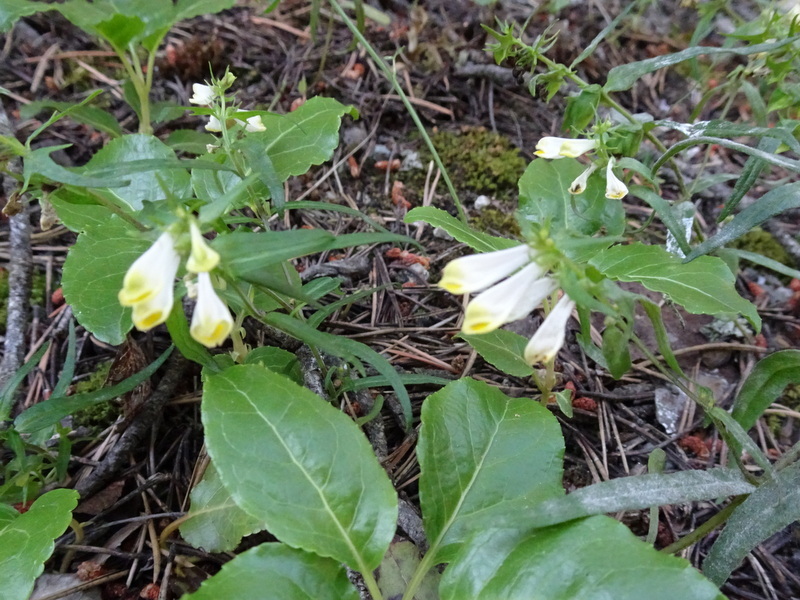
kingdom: Plantae
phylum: Tracheophyta
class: Magnoliopsida
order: Lamiales
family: Orobanchaceae
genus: Melampyrum
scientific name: Melampyrum pratense
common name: Common cow-wheat
